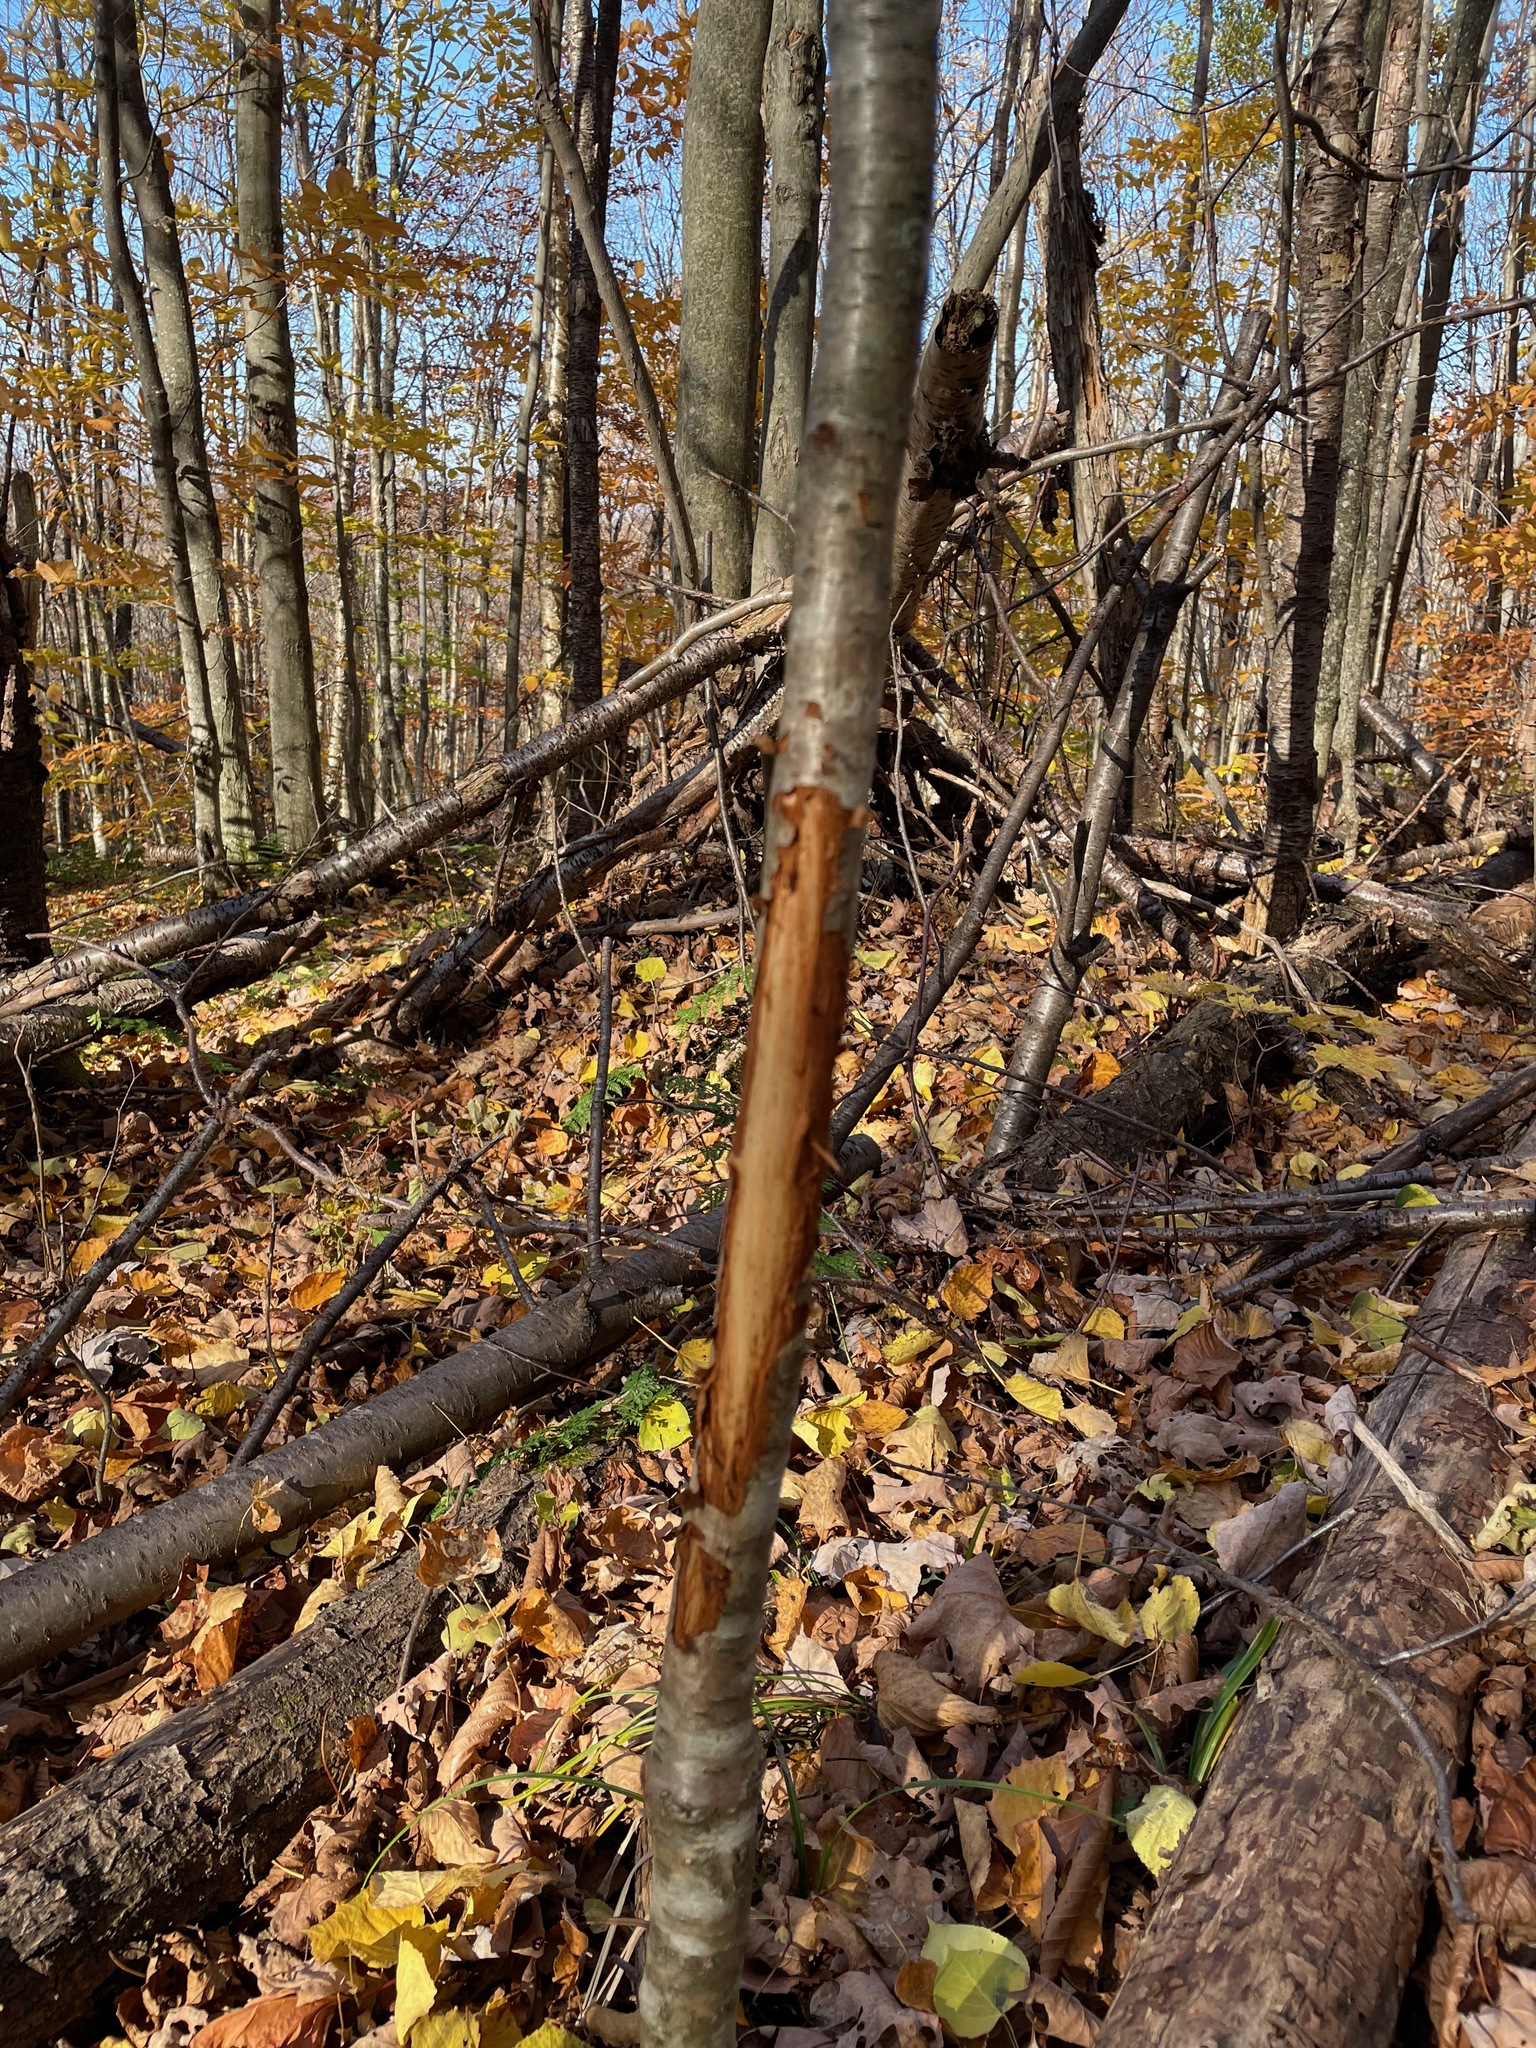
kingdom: Animalia
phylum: Chordata
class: Mammalia
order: Artiodactyla
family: Cervidae
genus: Odocoileus
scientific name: Odocoileus virginianus
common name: White-tailed deer
